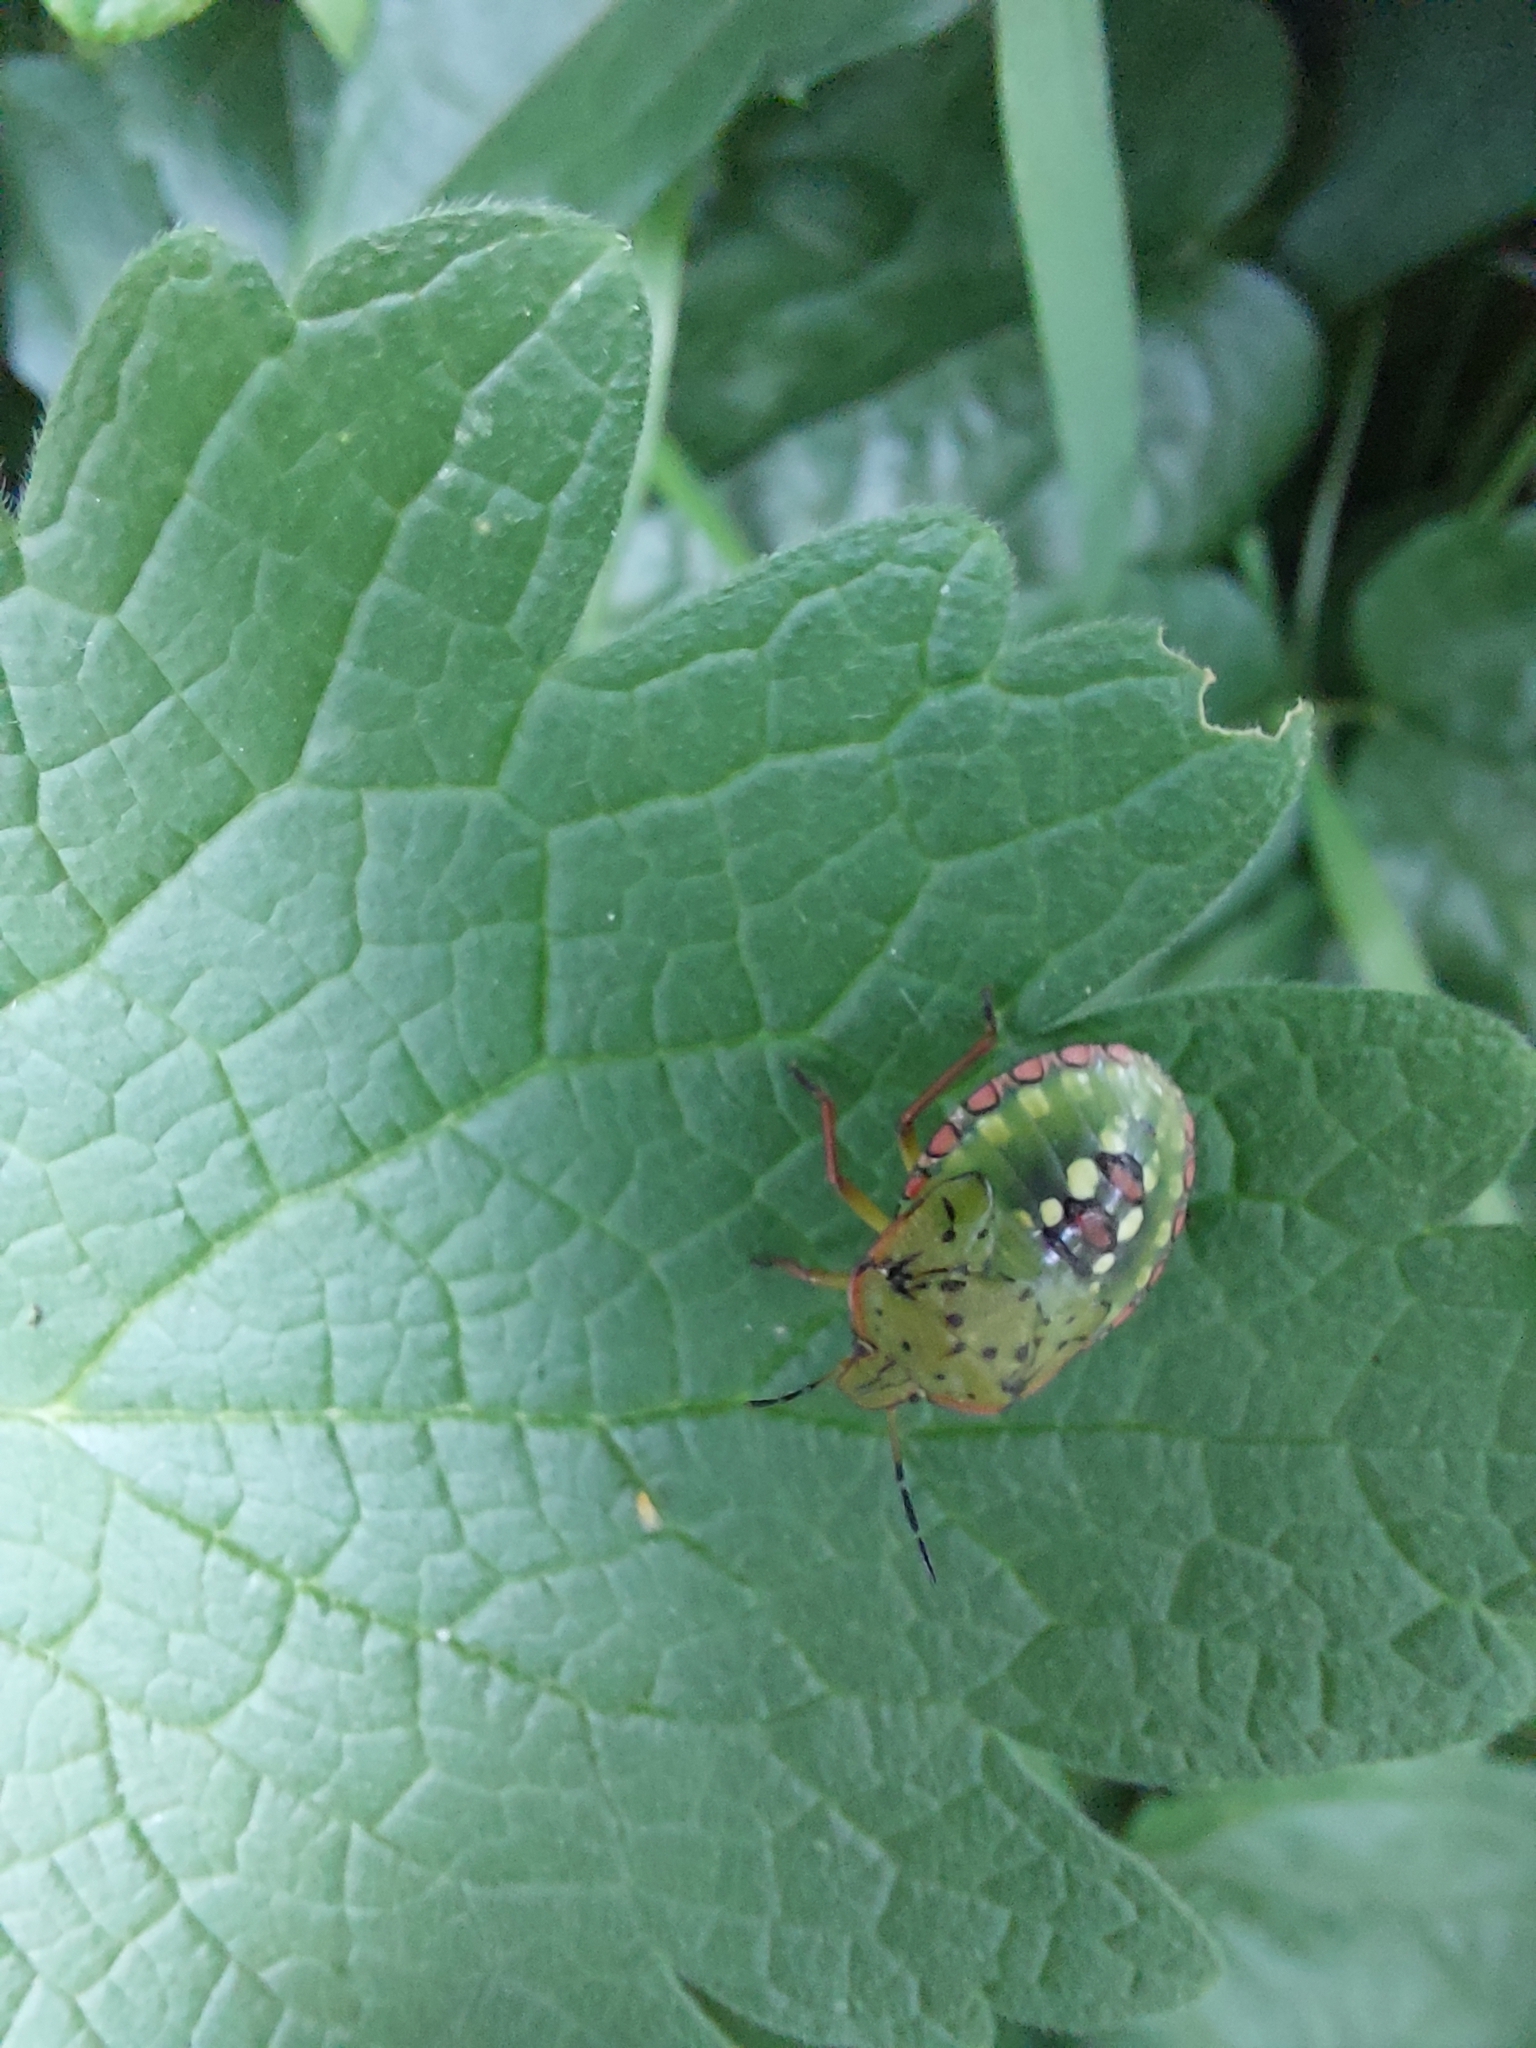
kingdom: Animalia
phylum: Arthropoda
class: Insecta
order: Hemiptera
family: Pentatomidae
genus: Nezara
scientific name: Nezara viridula
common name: Southern green stink bug
